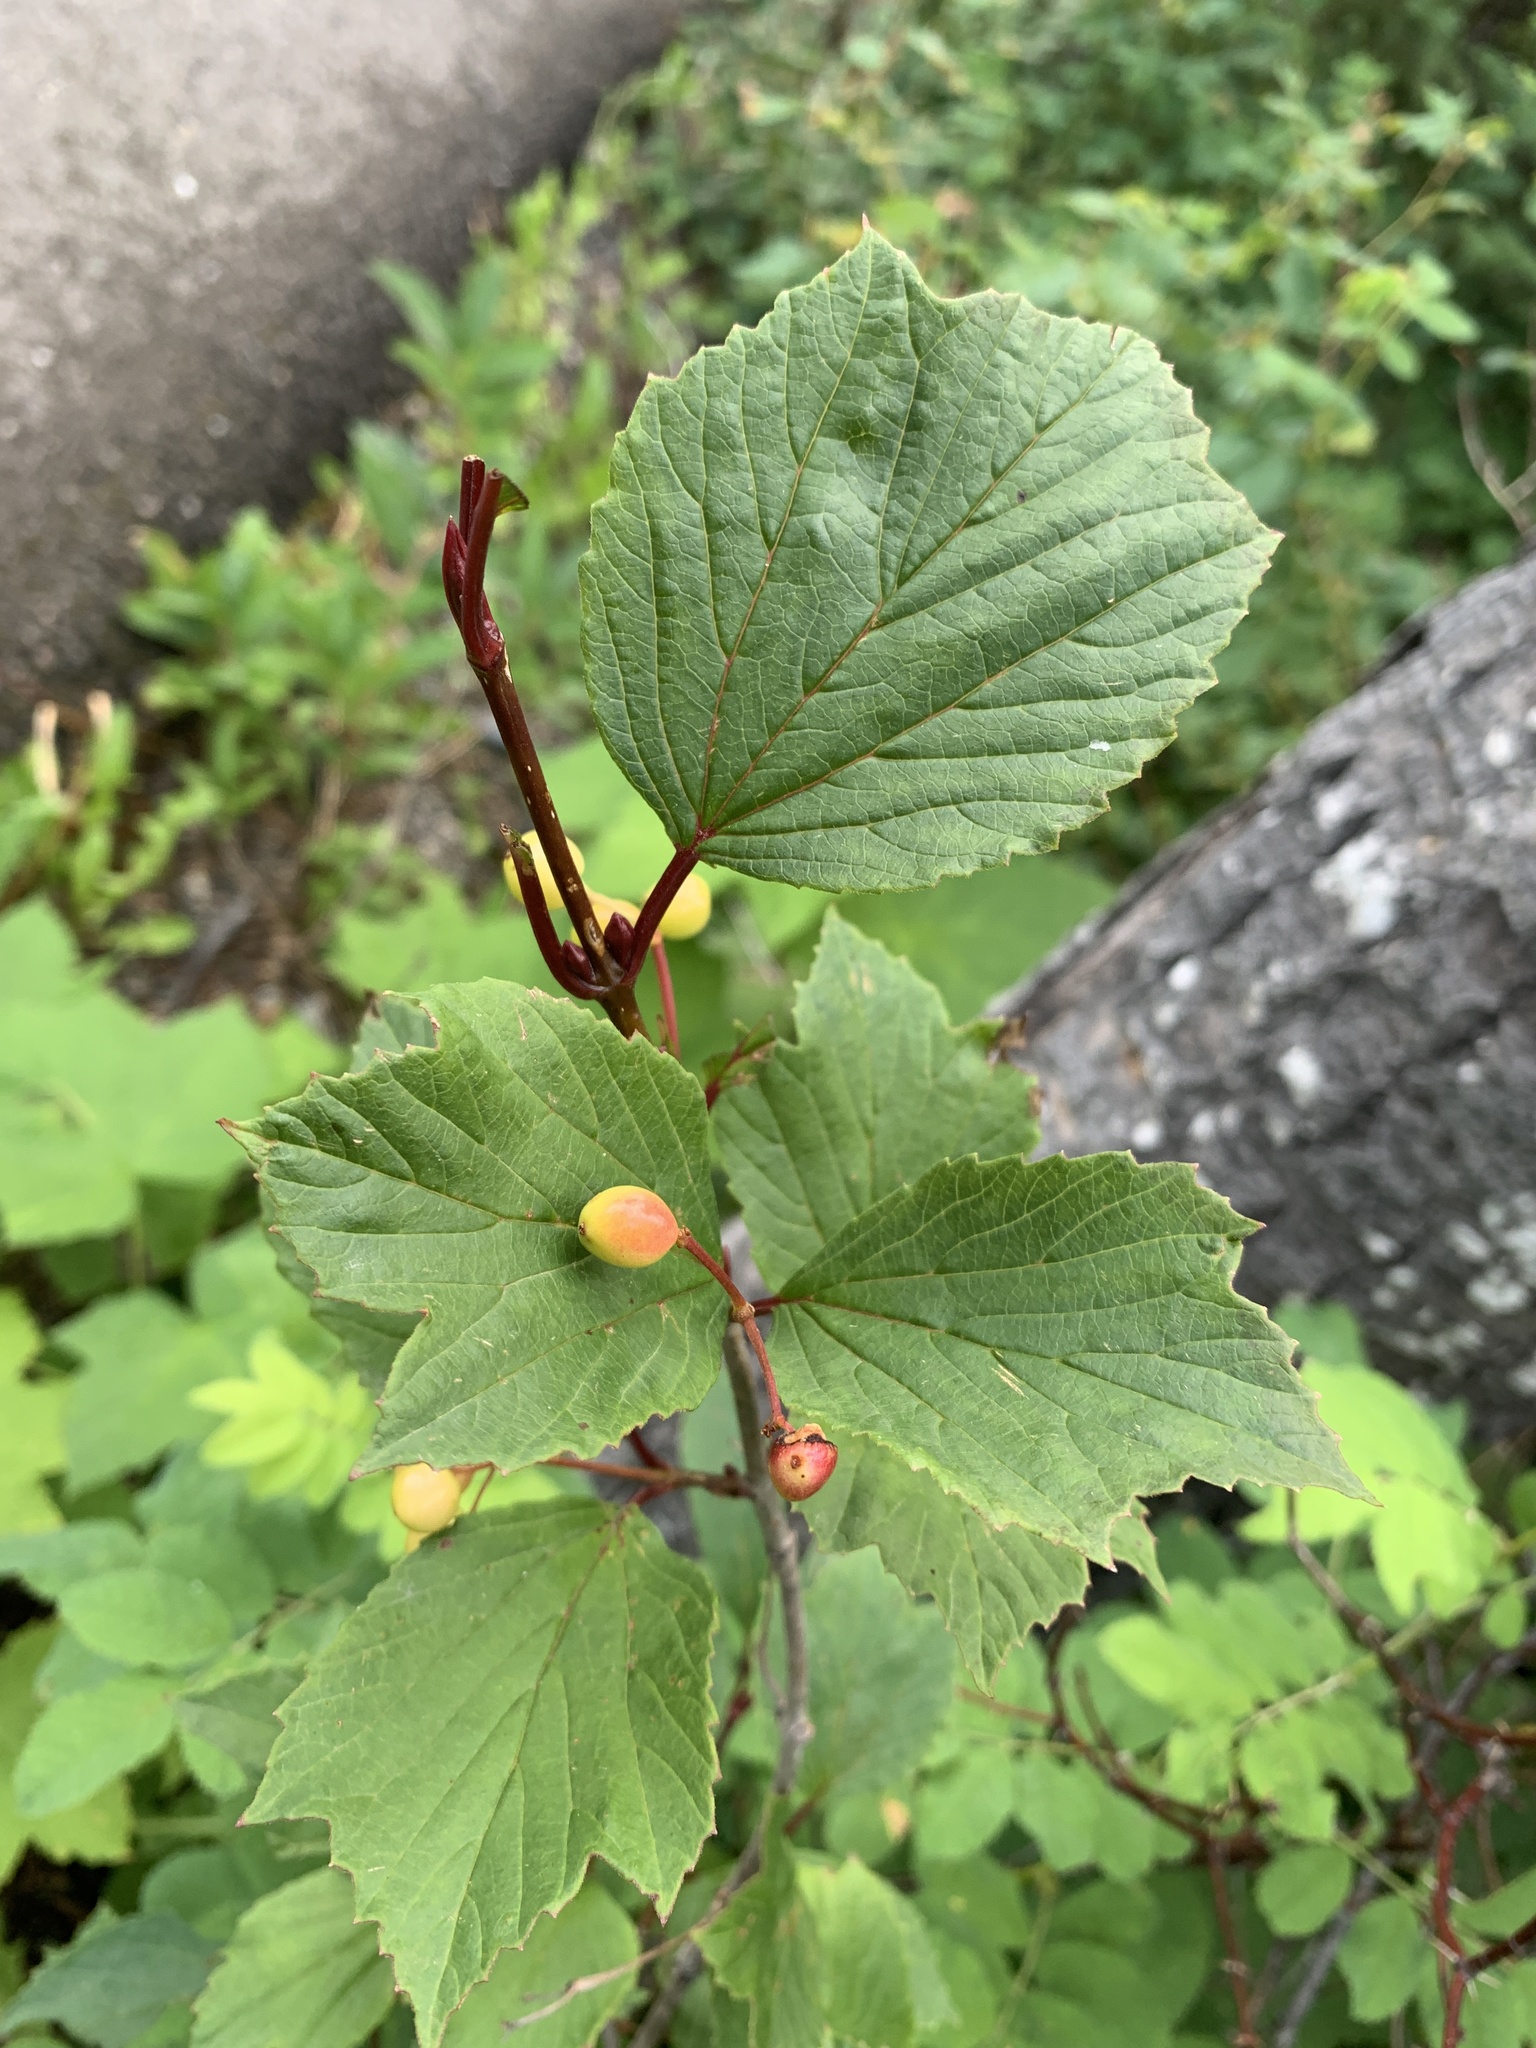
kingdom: Plantae
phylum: Tracheophyta
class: Magnoliopsida
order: Dipsacales
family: Viburnaceae
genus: Viburnum
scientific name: Viburnum edule
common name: Mooseberry
